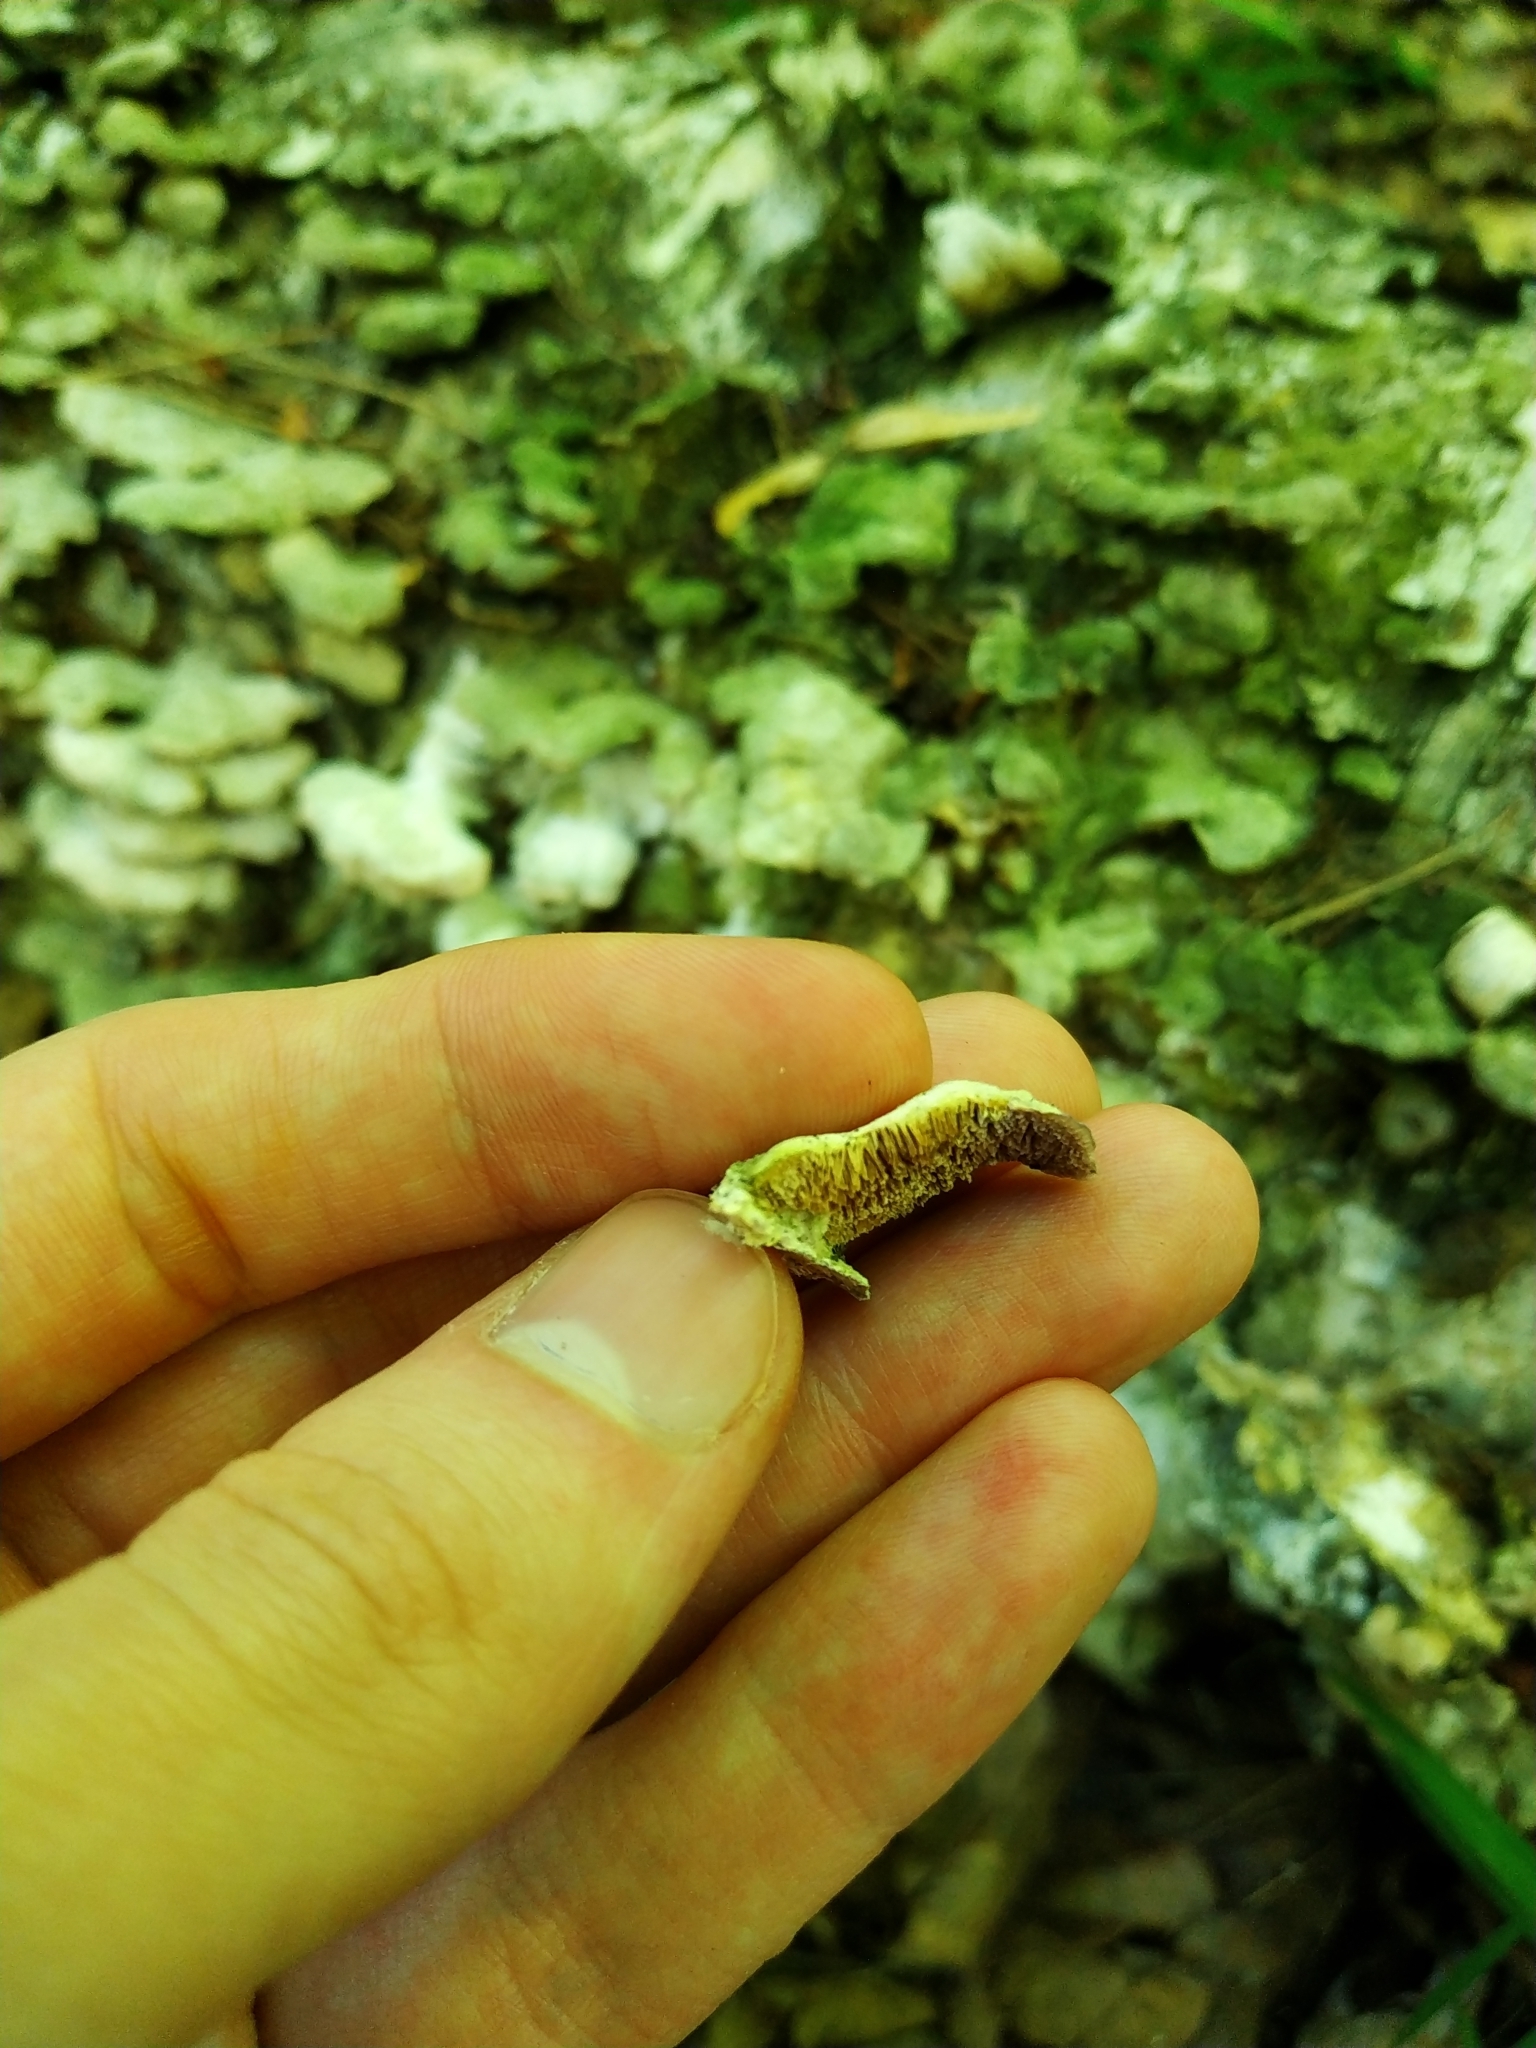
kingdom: Fungi
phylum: Basidiomycota
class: Agaricomycetes
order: Hymenochaetales
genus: Trichaptum
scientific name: Trichaptum biforme
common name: Violet-toothed polypore
